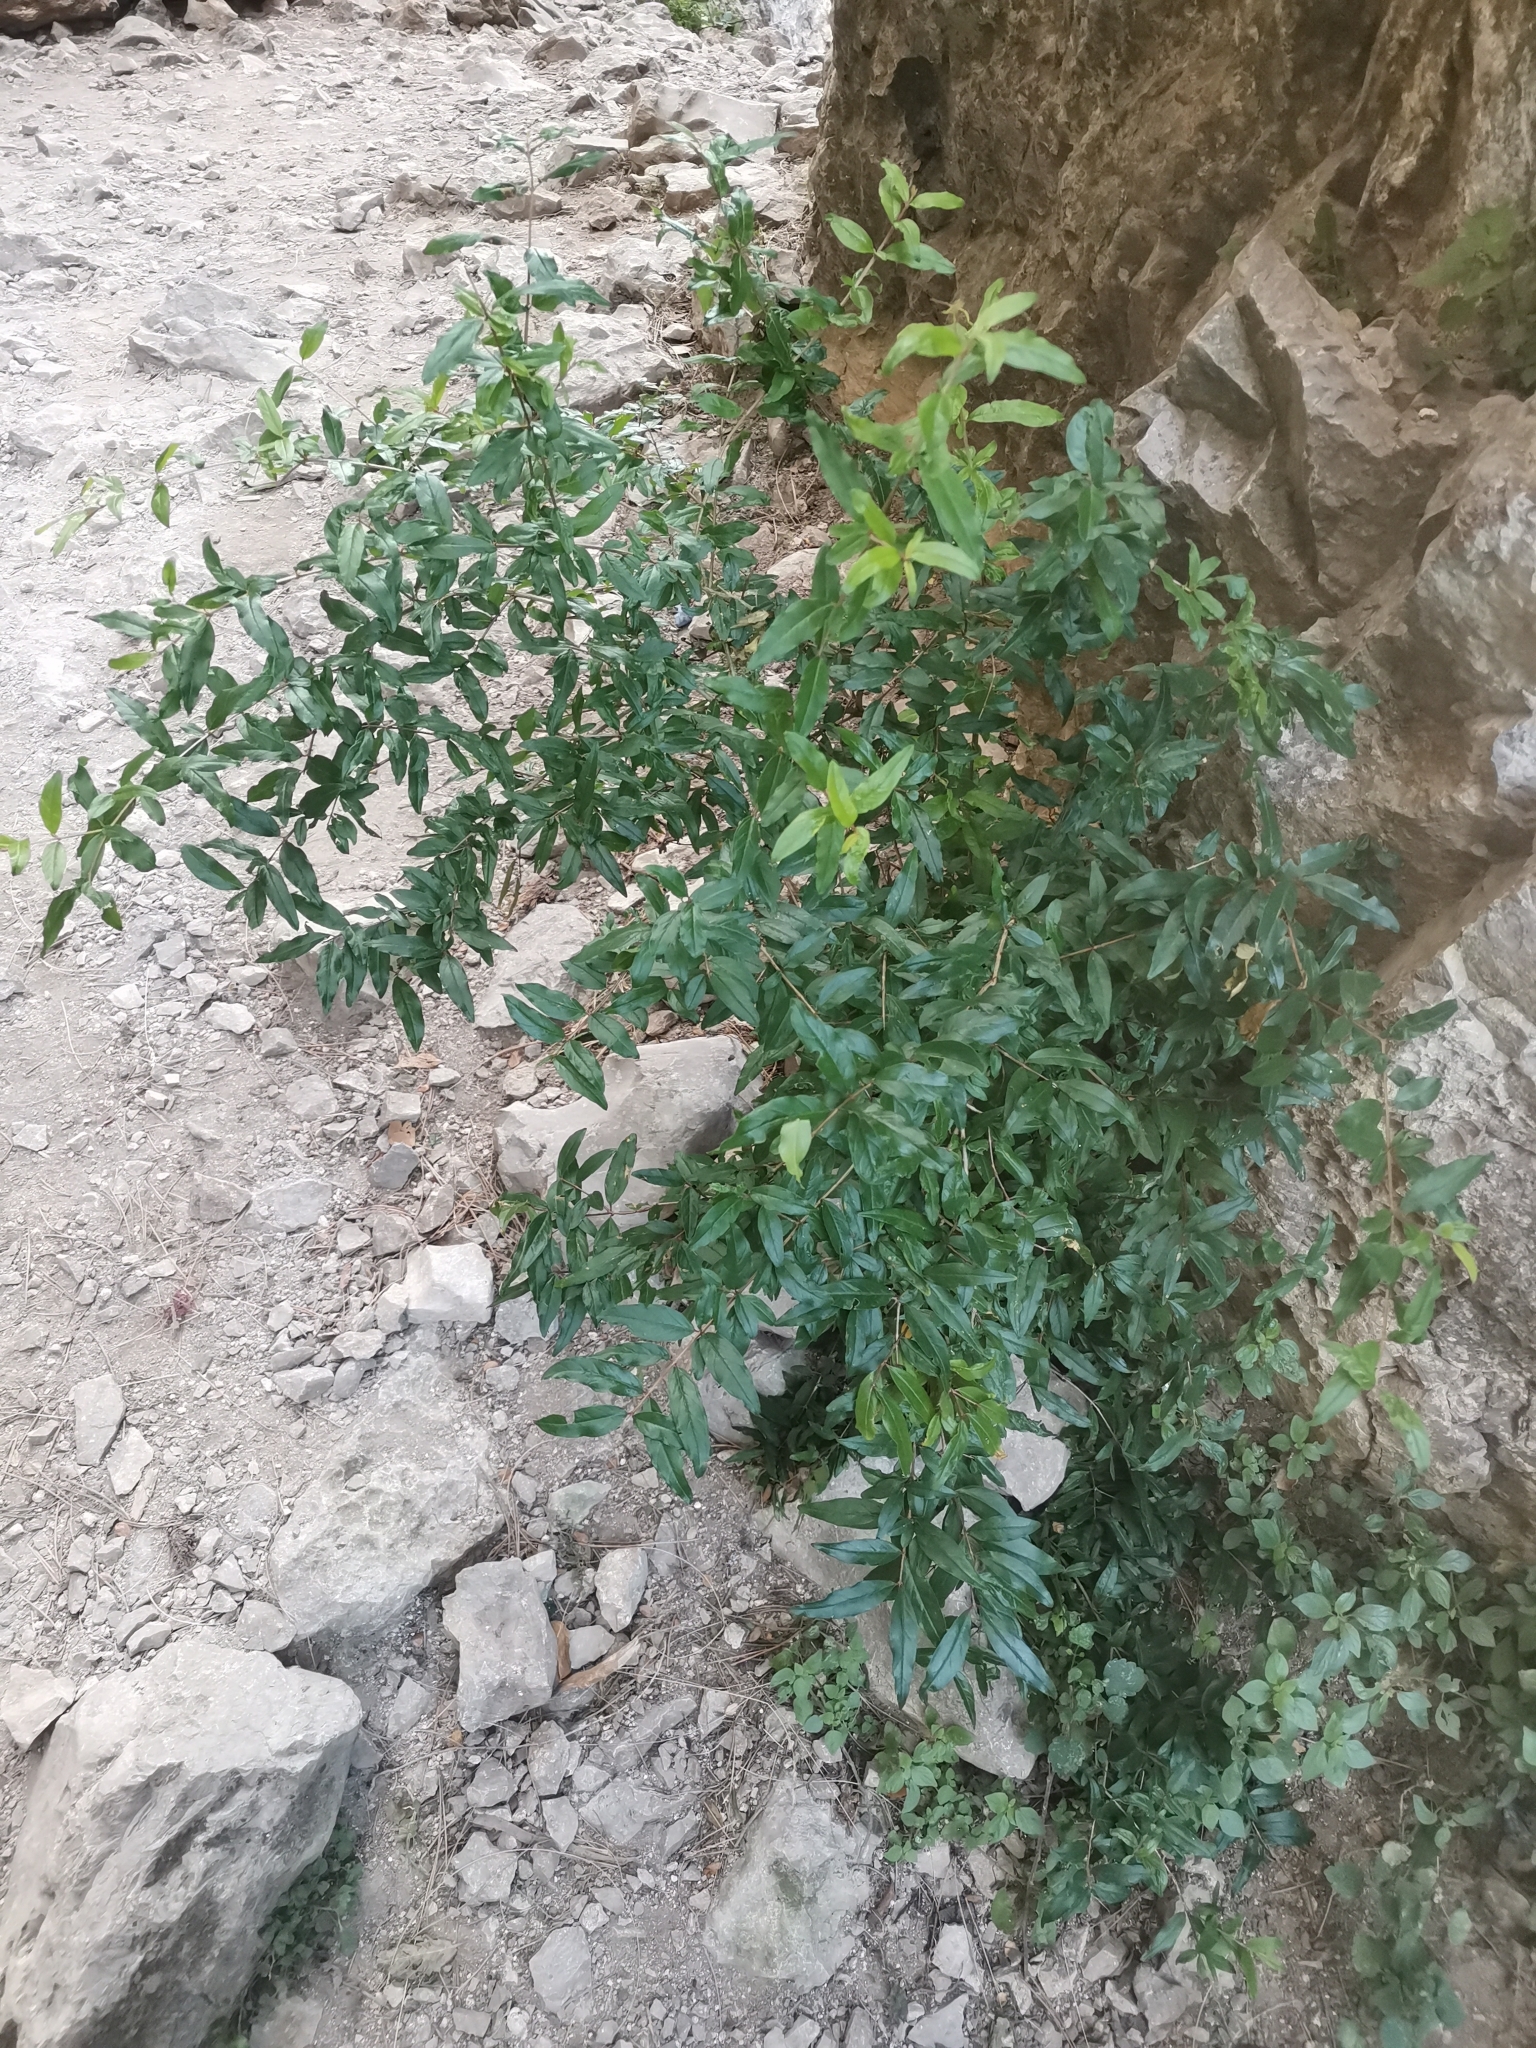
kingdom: Plantae
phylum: Tracheophyta
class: Magnoliopsida
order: Myrtales
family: Lythraceae
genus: Punica
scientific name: Punica granatum
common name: Pomegranate
